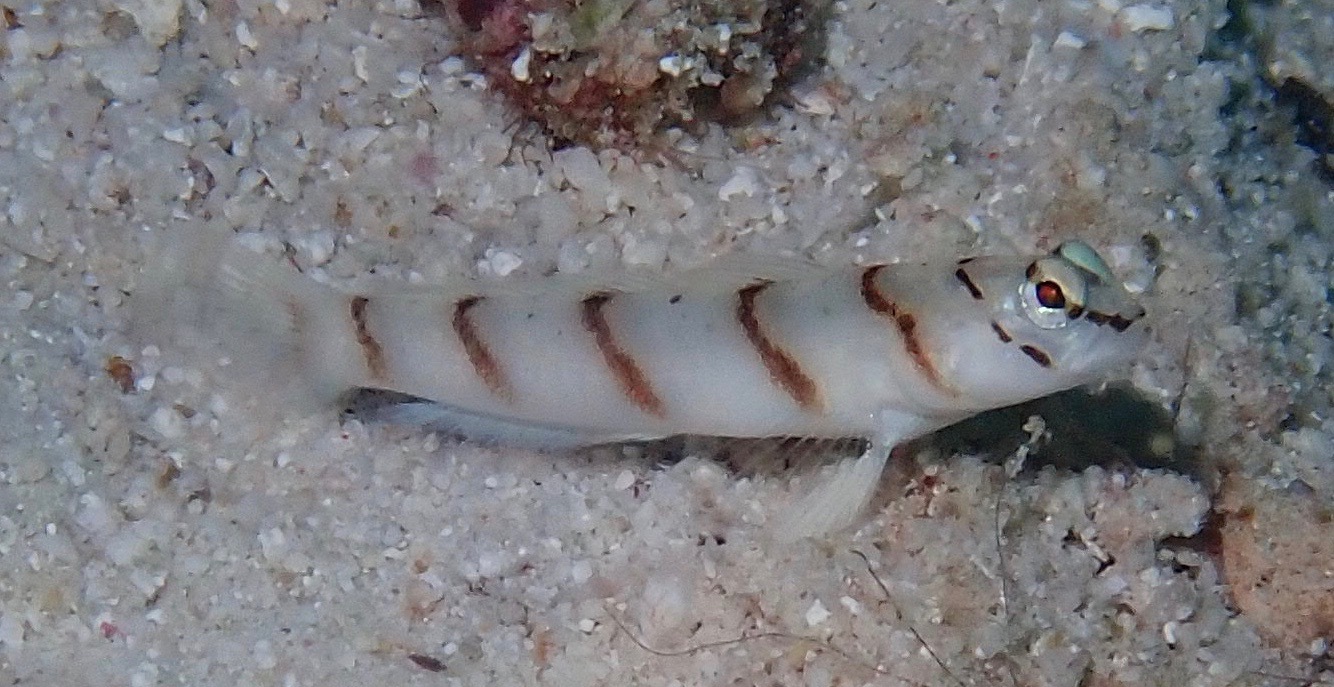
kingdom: Animalia
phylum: Chordata
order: Perciformes
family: Gobiidae
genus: Amblyeleotris
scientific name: Amblyeleotris diagonalis
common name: Diagonal shrimp goby
